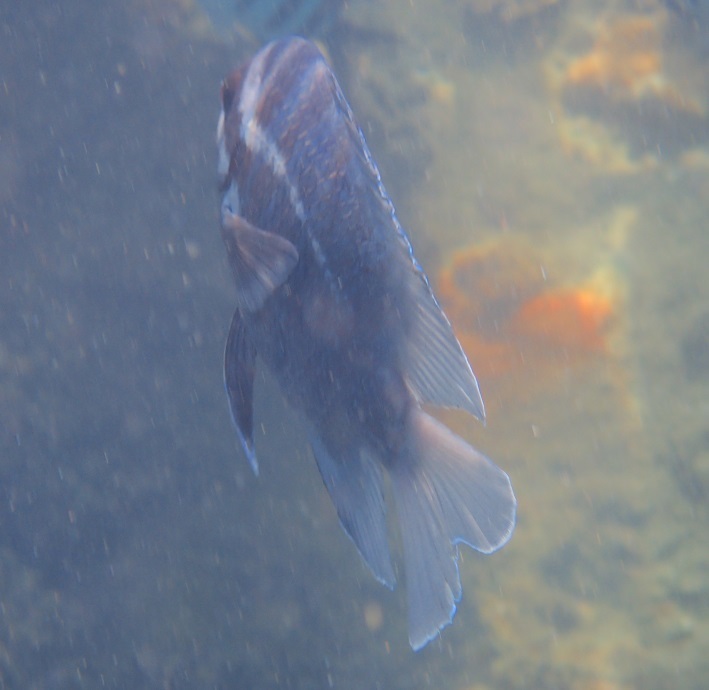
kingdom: Animalia
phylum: Chordata
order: Perciformes
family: Pomacentridae
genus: Abudefduf
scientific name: Abudefduf bengalensis
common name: Bengal sergeant
